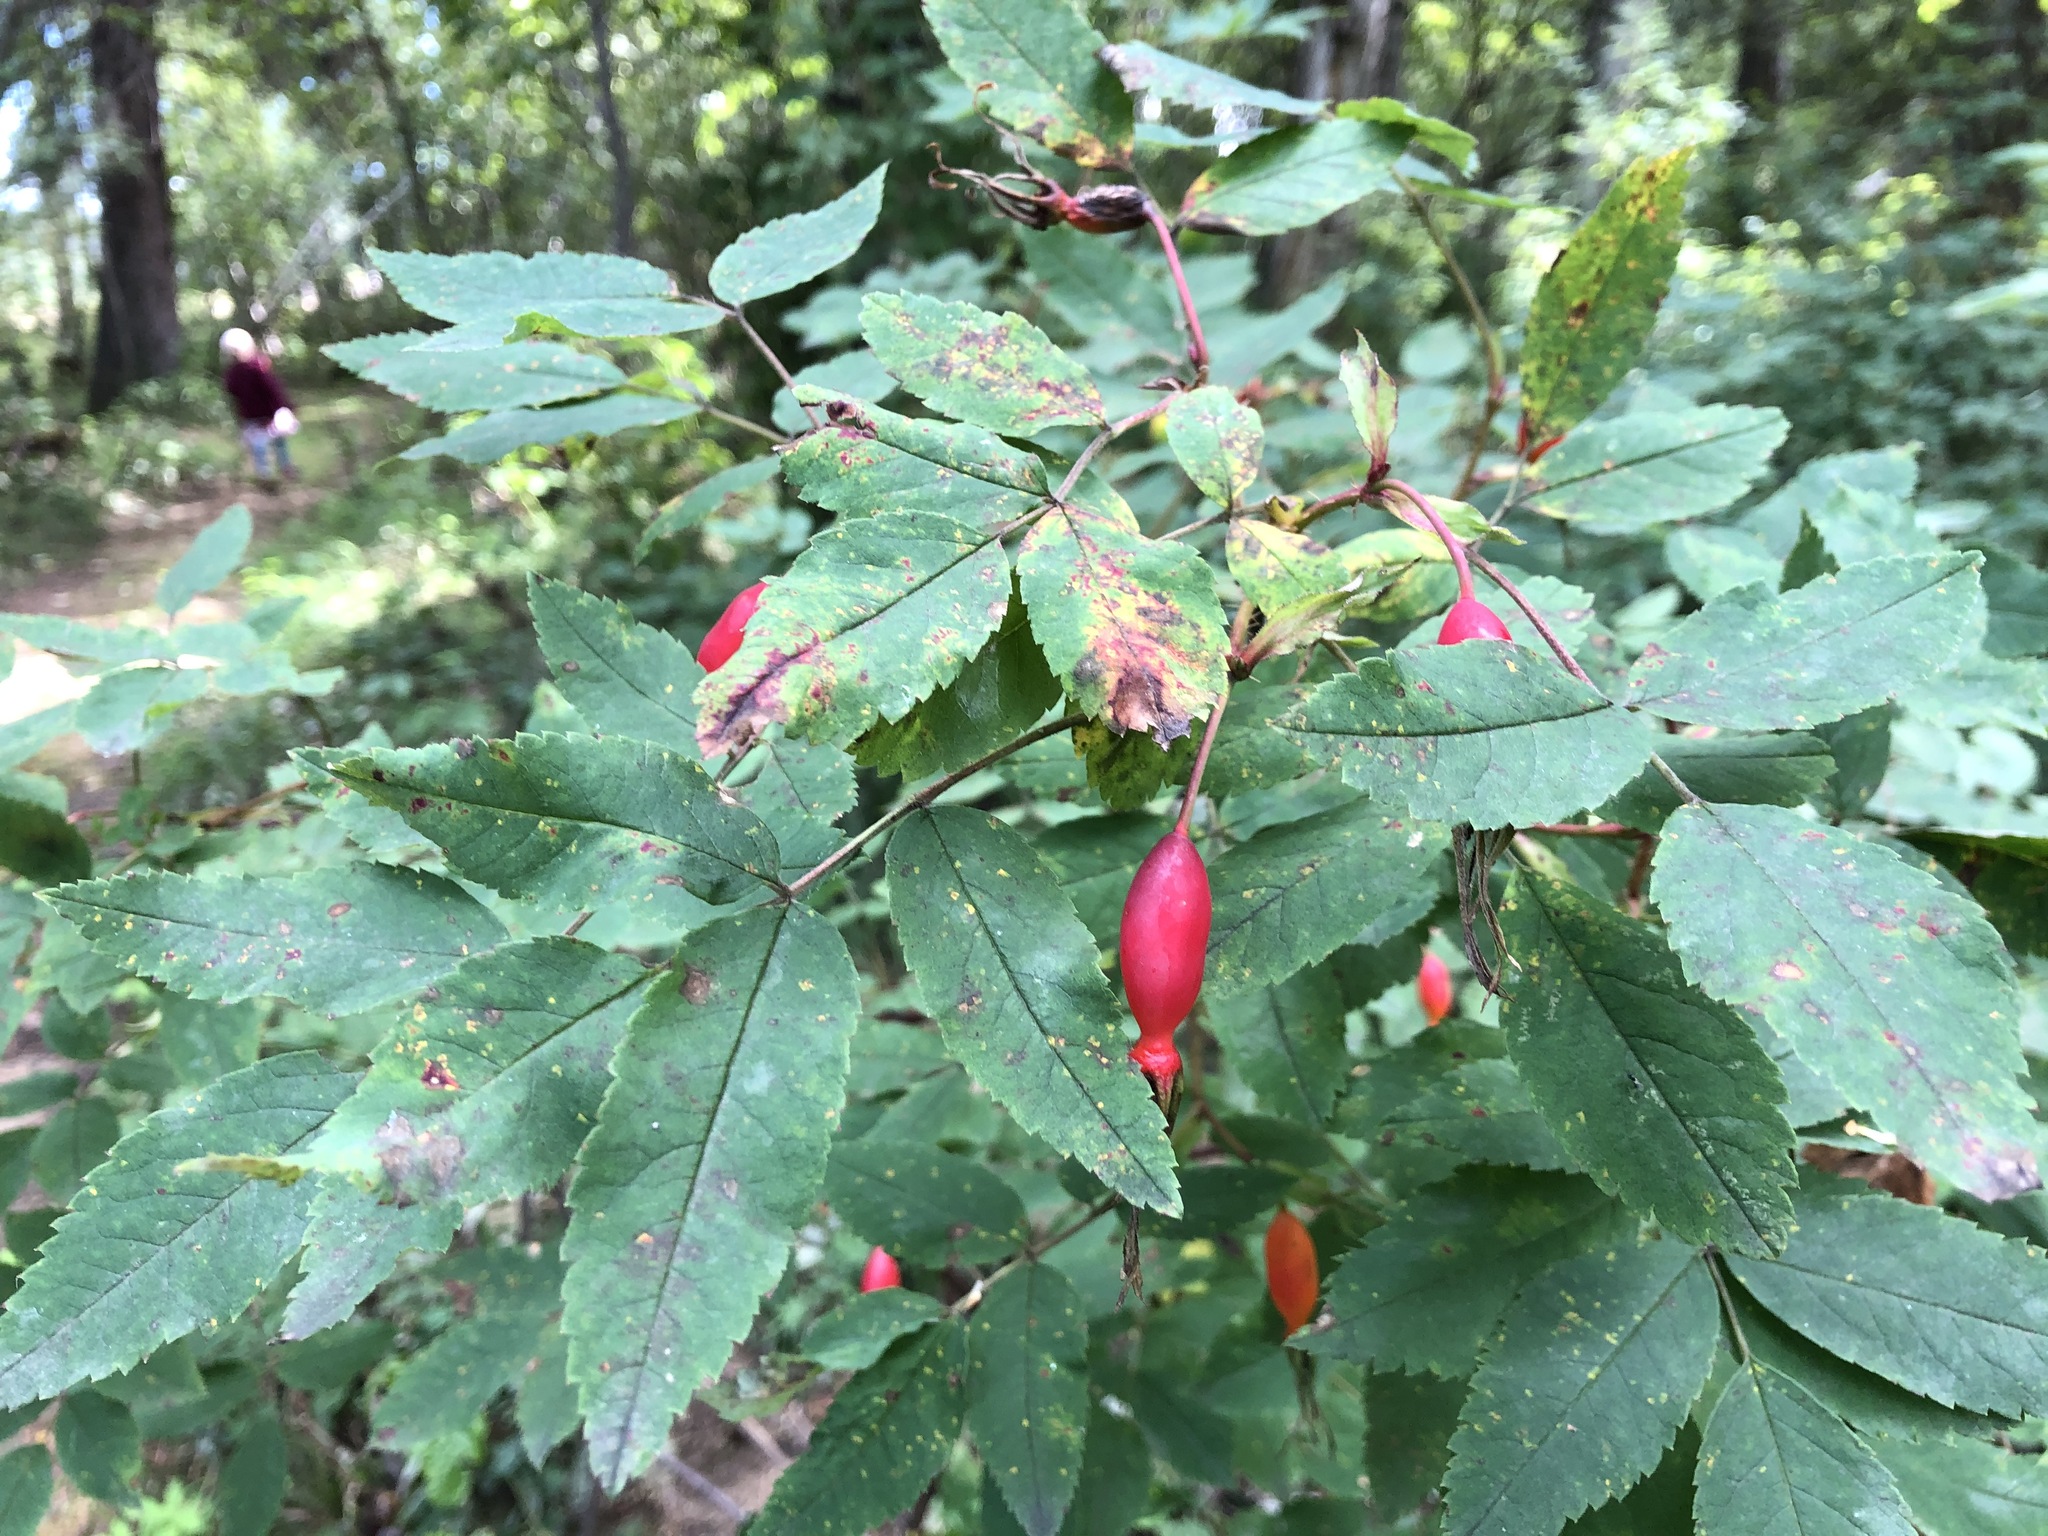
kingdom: Plantae
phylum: Tracheophyta
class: Magnoliopsida
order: Rosales
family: Rosaceae
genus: Rosa
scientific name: Rosa acicularis
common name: Prickly rose
